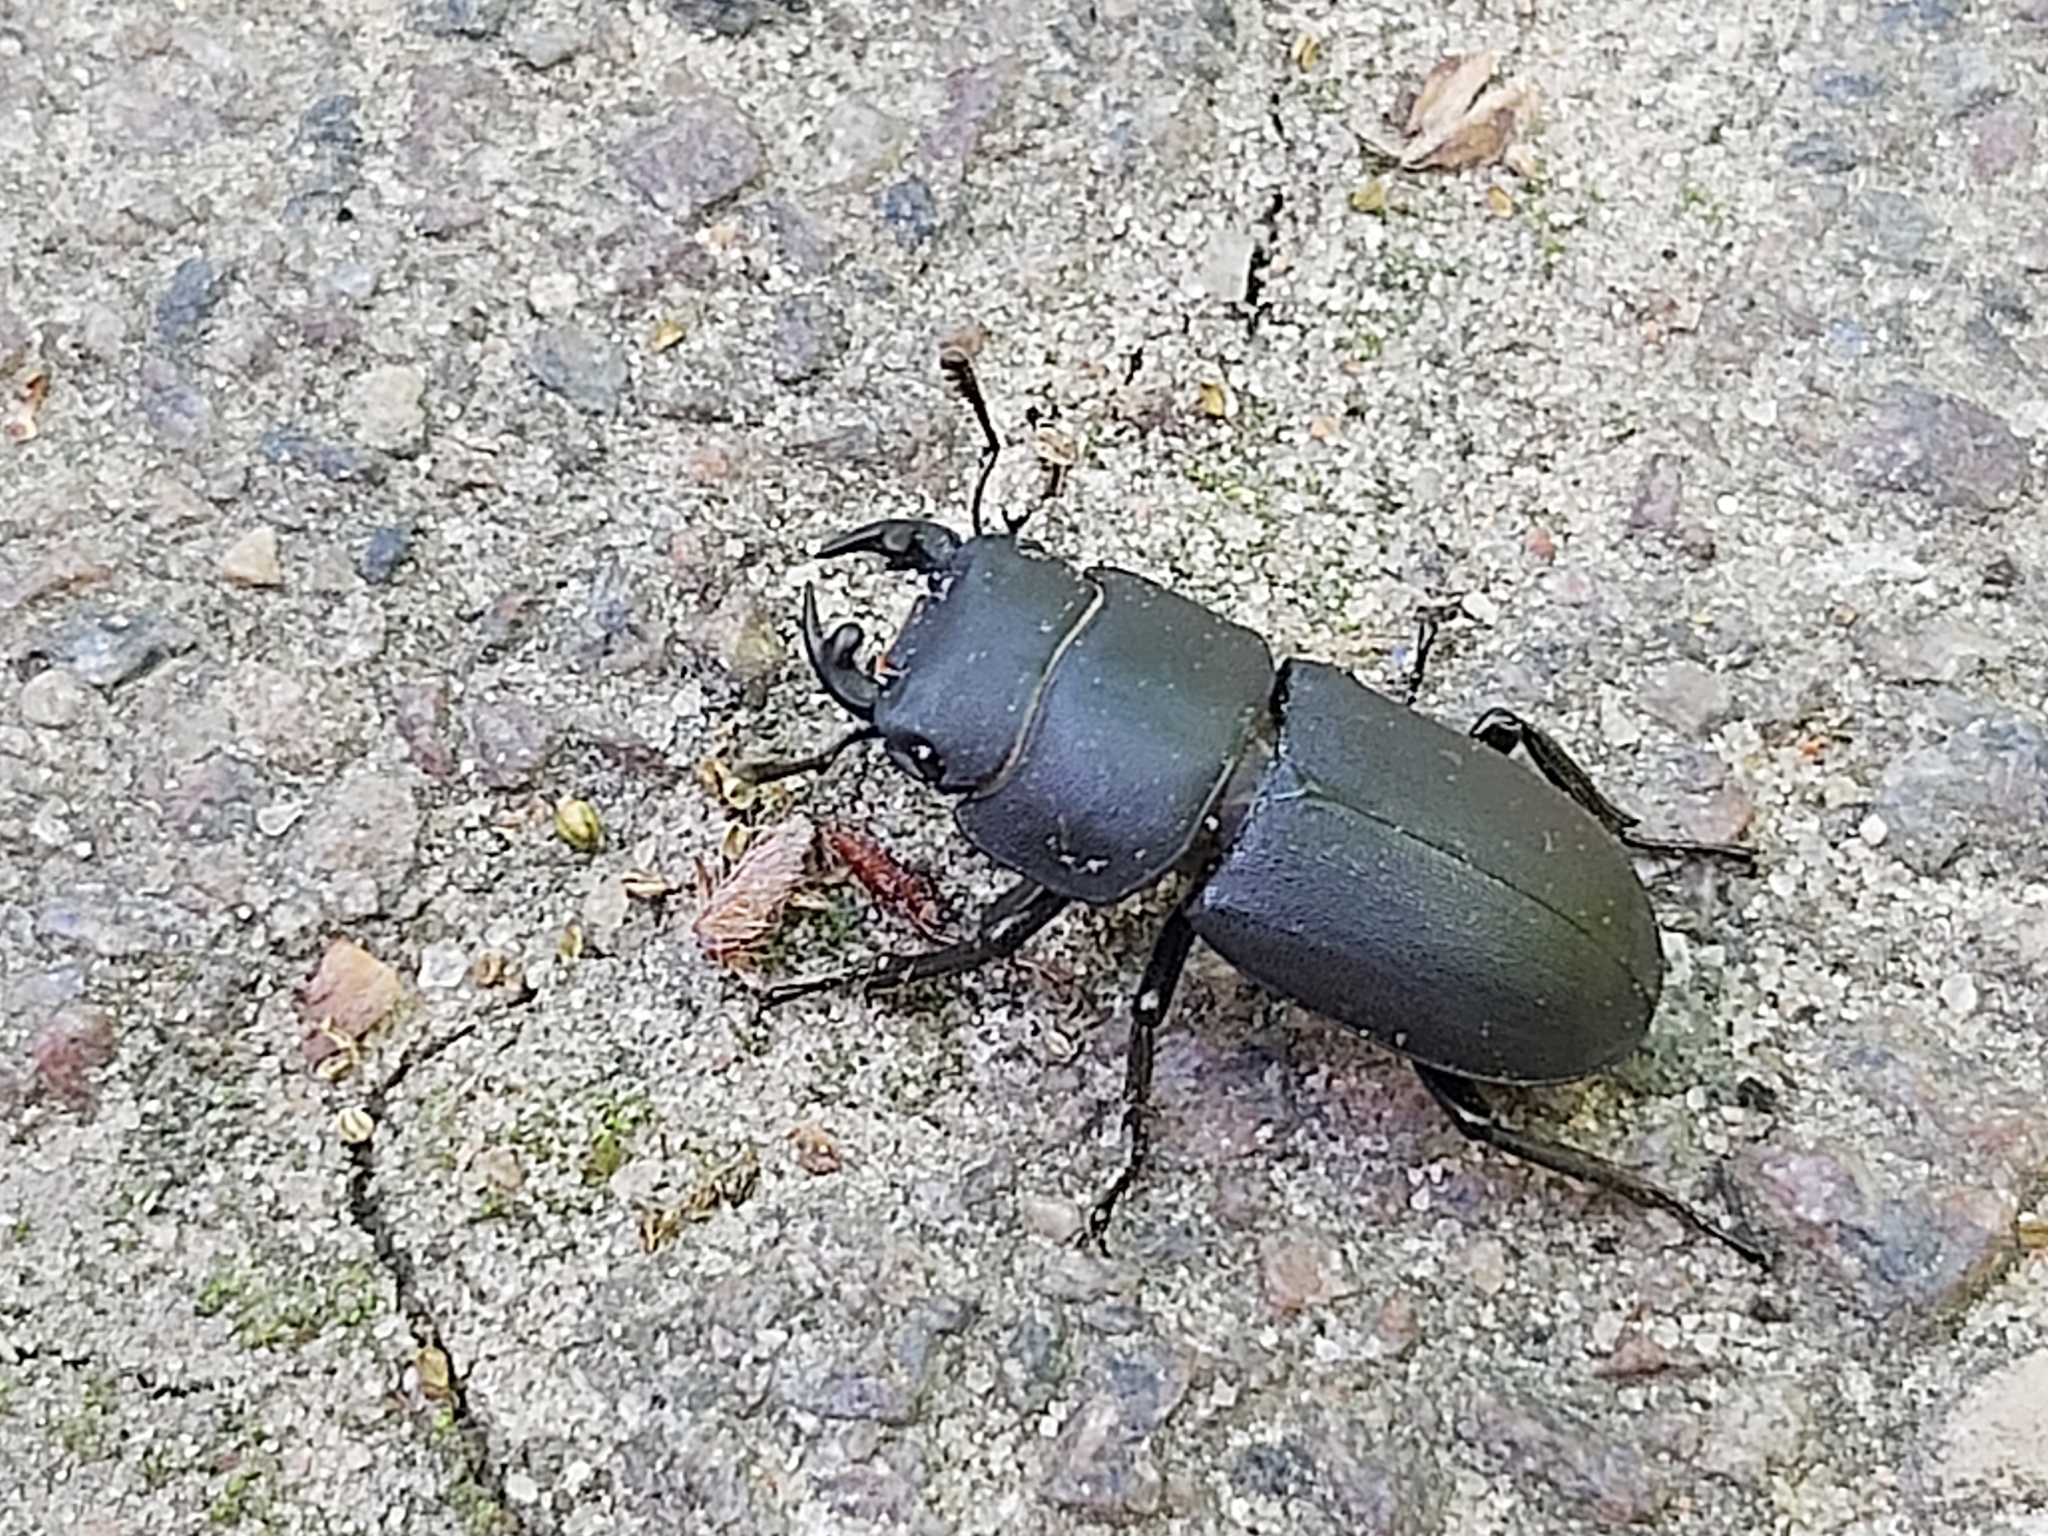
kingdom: Animalia
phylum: Arthropoda
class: Insecta
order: Coleoptera
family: Lucanidae
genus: Dorcus
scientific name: Dorcus parallelipipedus
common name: Lesser stag beetle
